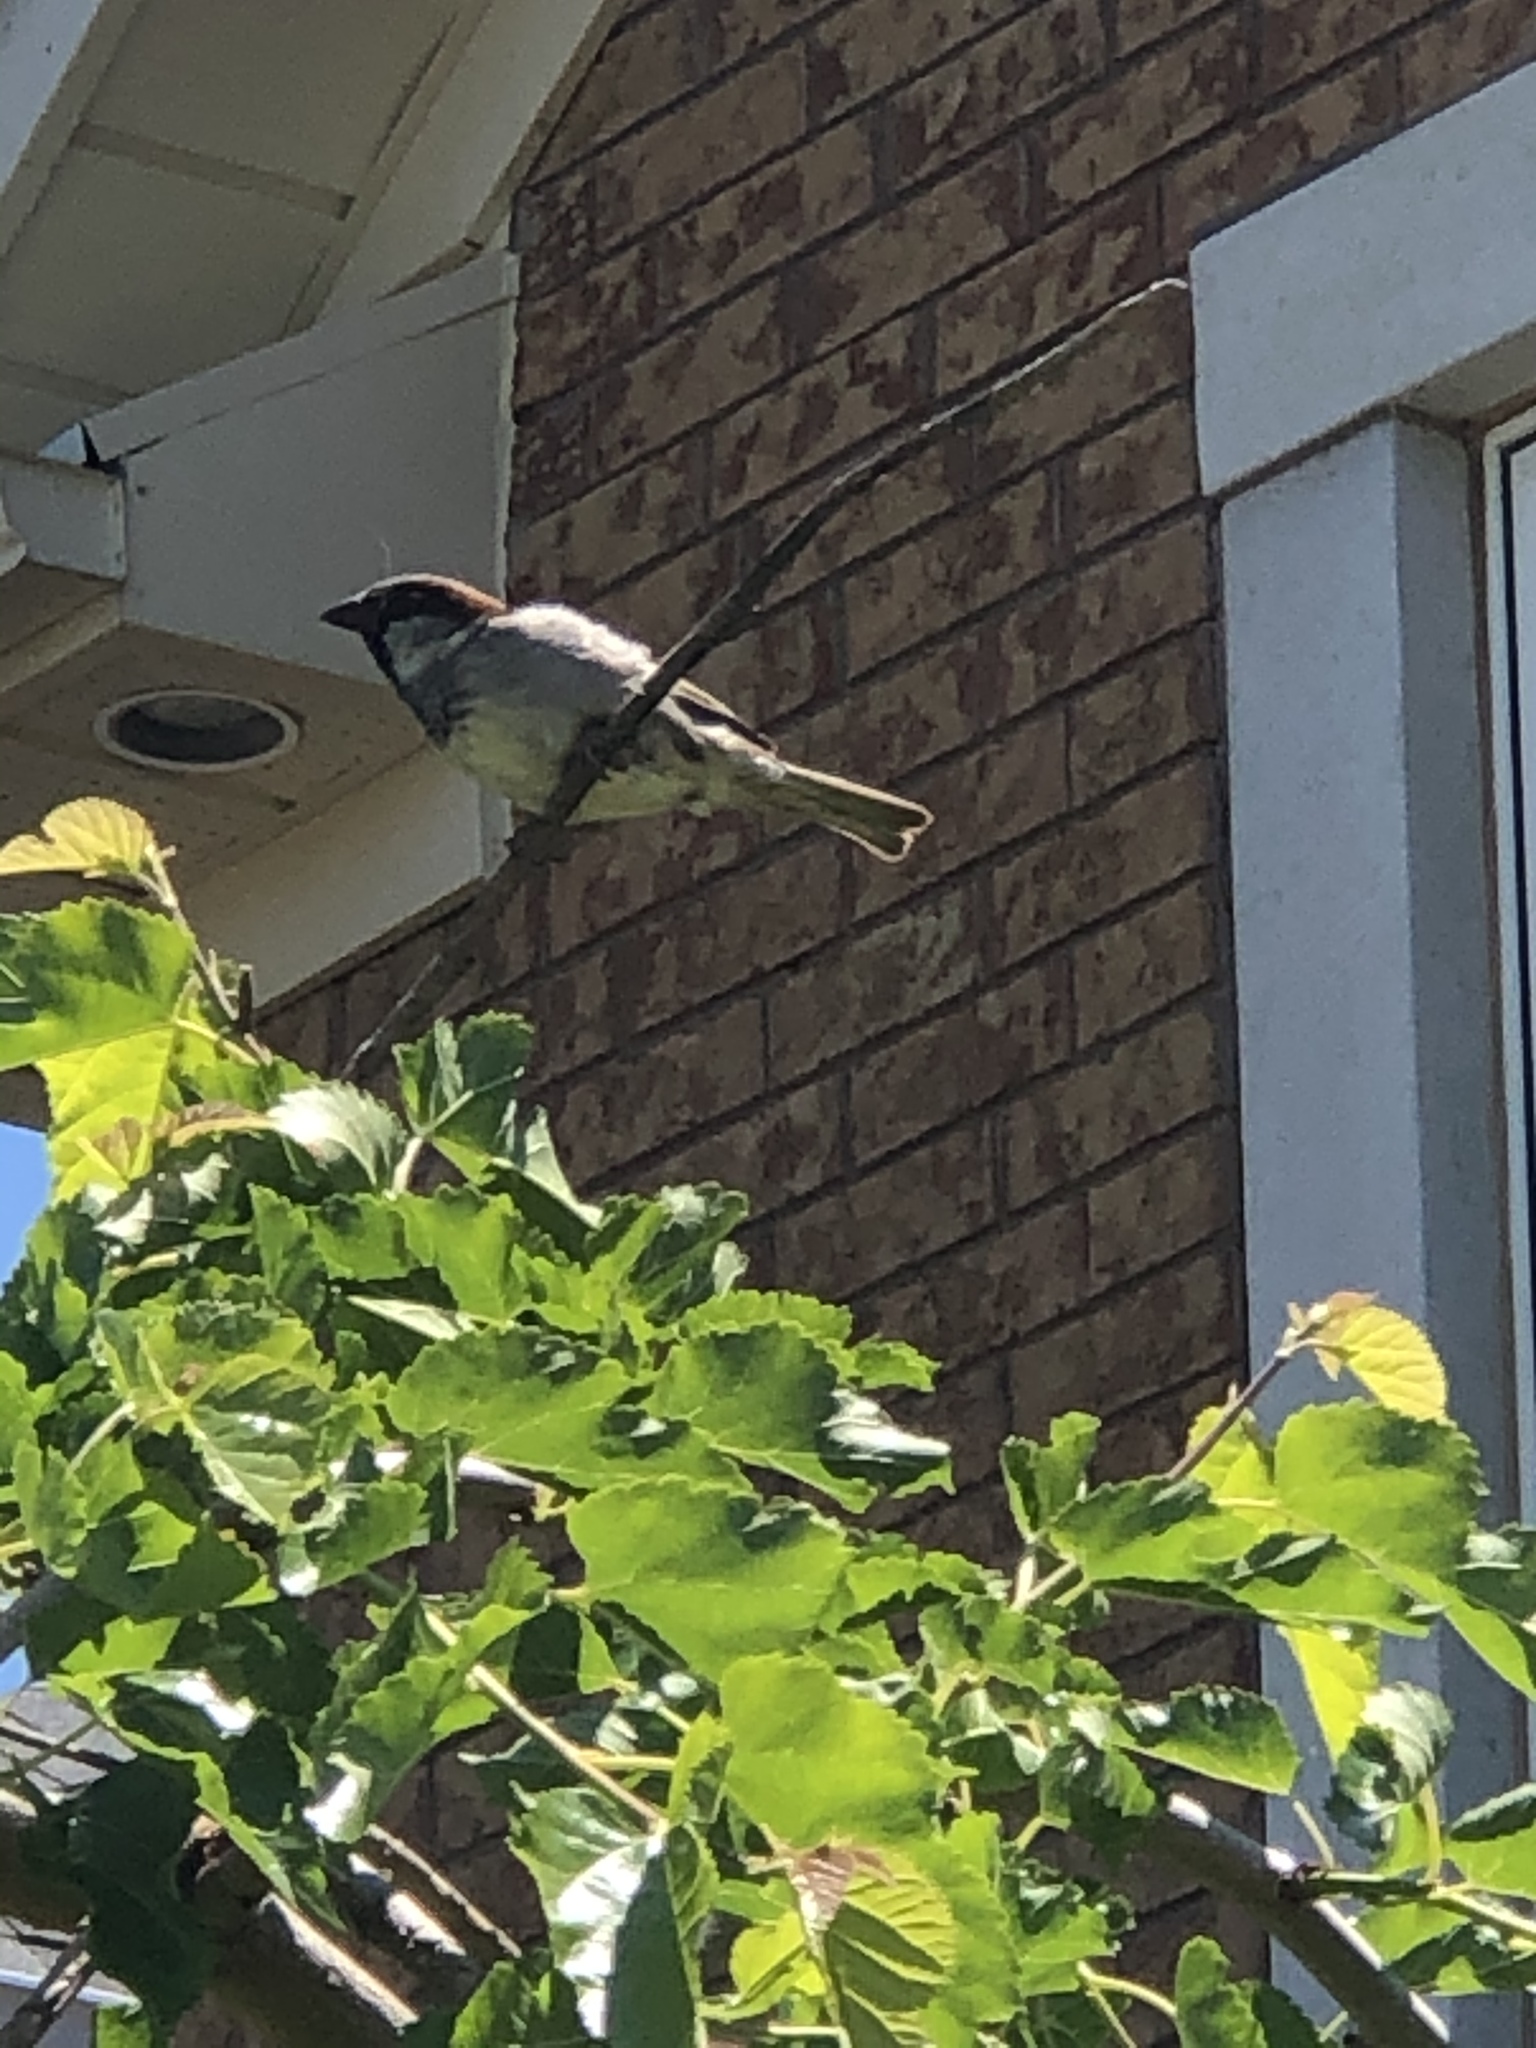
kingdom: Animalia
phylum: Chordata
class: Aves
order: Passeriformes
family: Passeridae
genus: Passer
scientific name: Passer domesticus
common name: House sparrow
